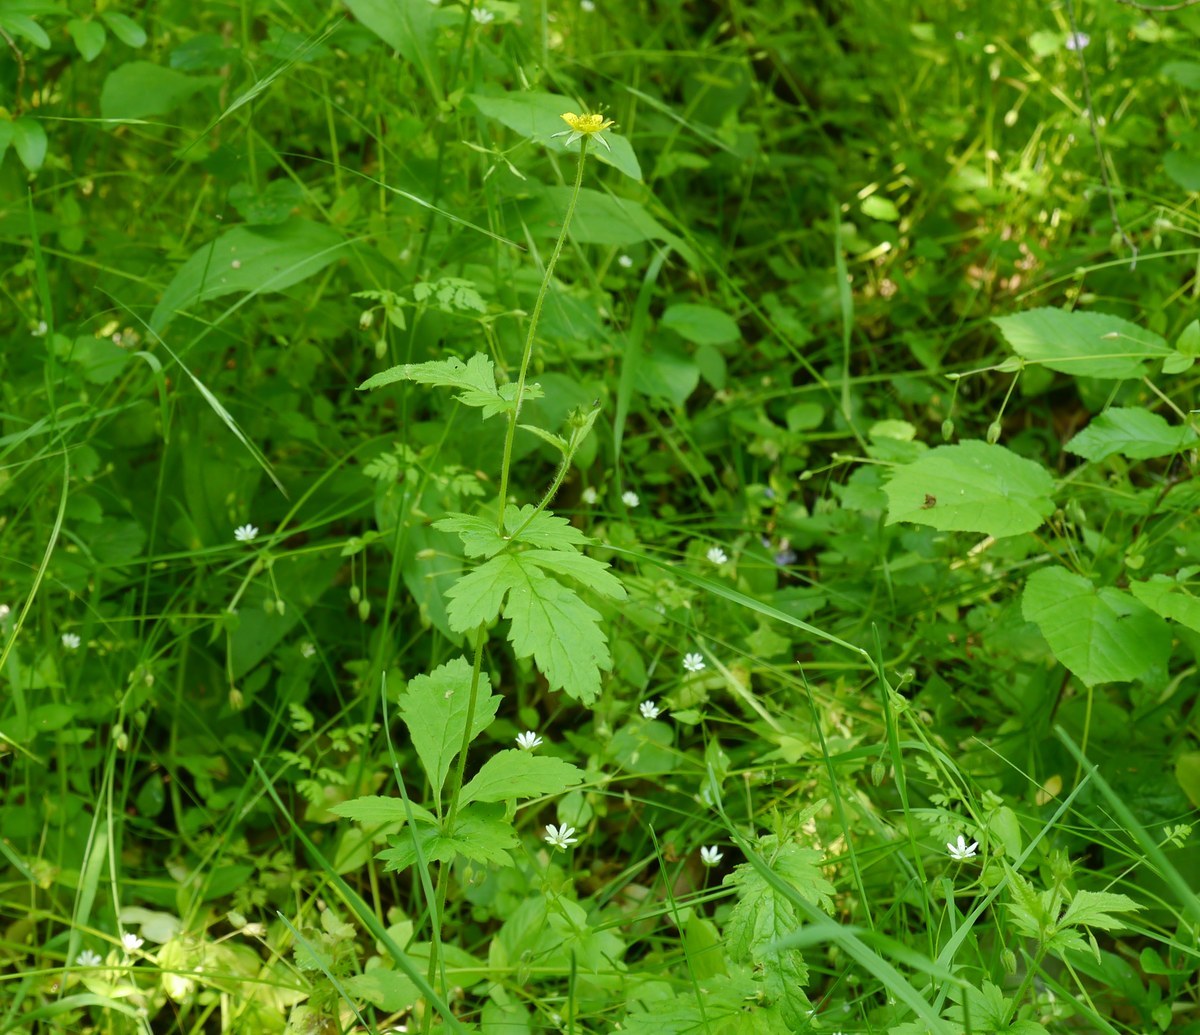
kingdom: Plantae
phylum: Tracheophyta
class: Magnoliopsida
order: Rosales
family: Rosaceae
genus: Geum
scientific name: Geum urbanum
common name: Wood avens
